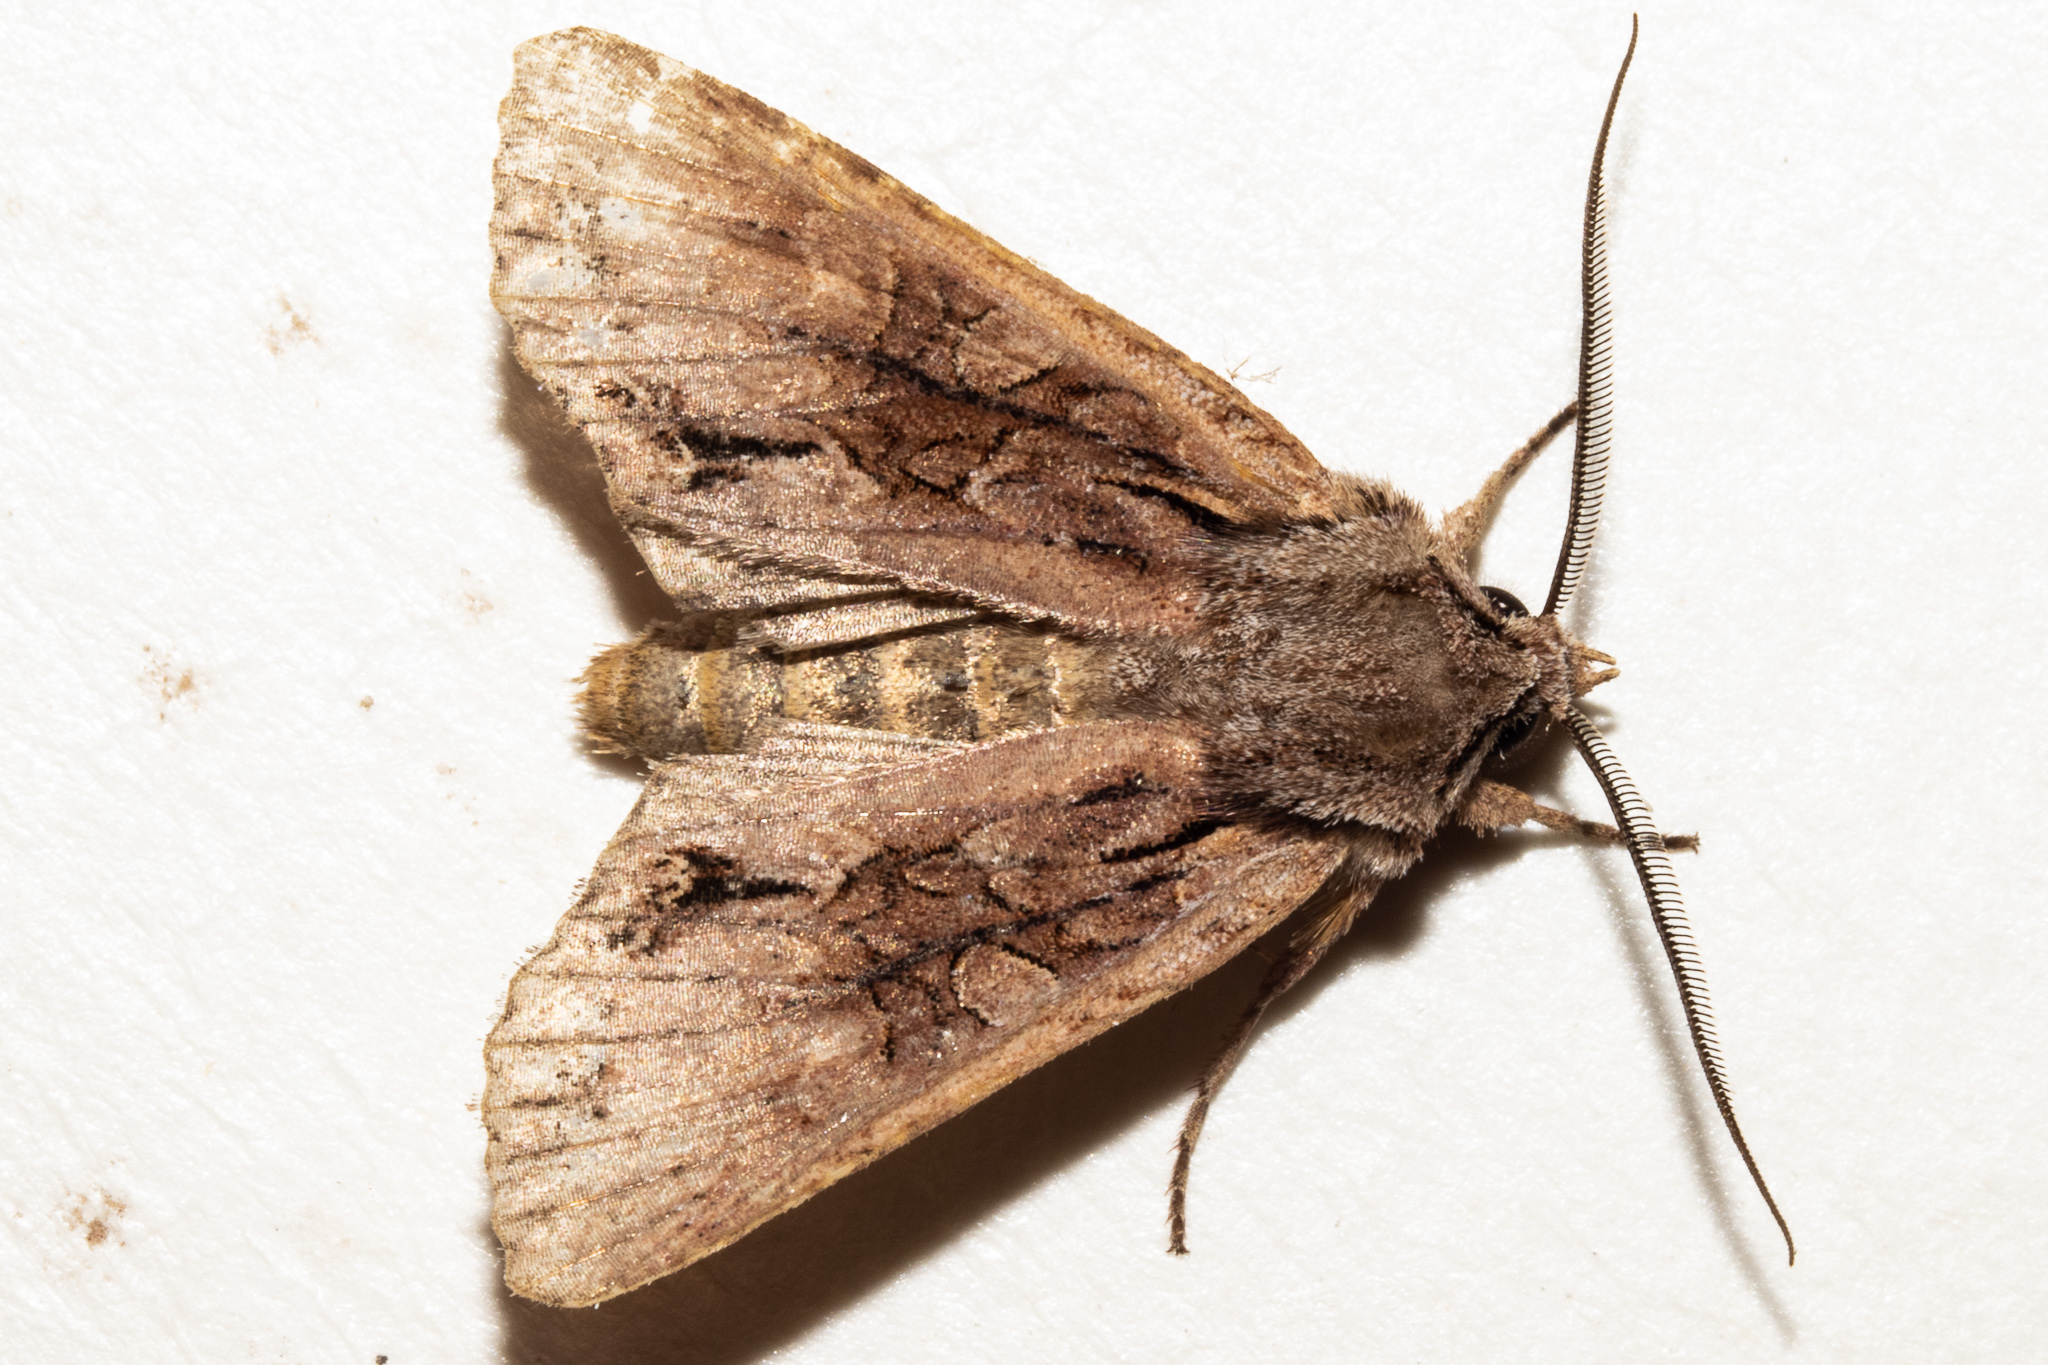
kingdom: Animalia
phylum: Arthropoda
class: Insecta
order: Lepidoptera
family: Noctuidae
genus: Ichneutica
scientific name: Ichneutica
